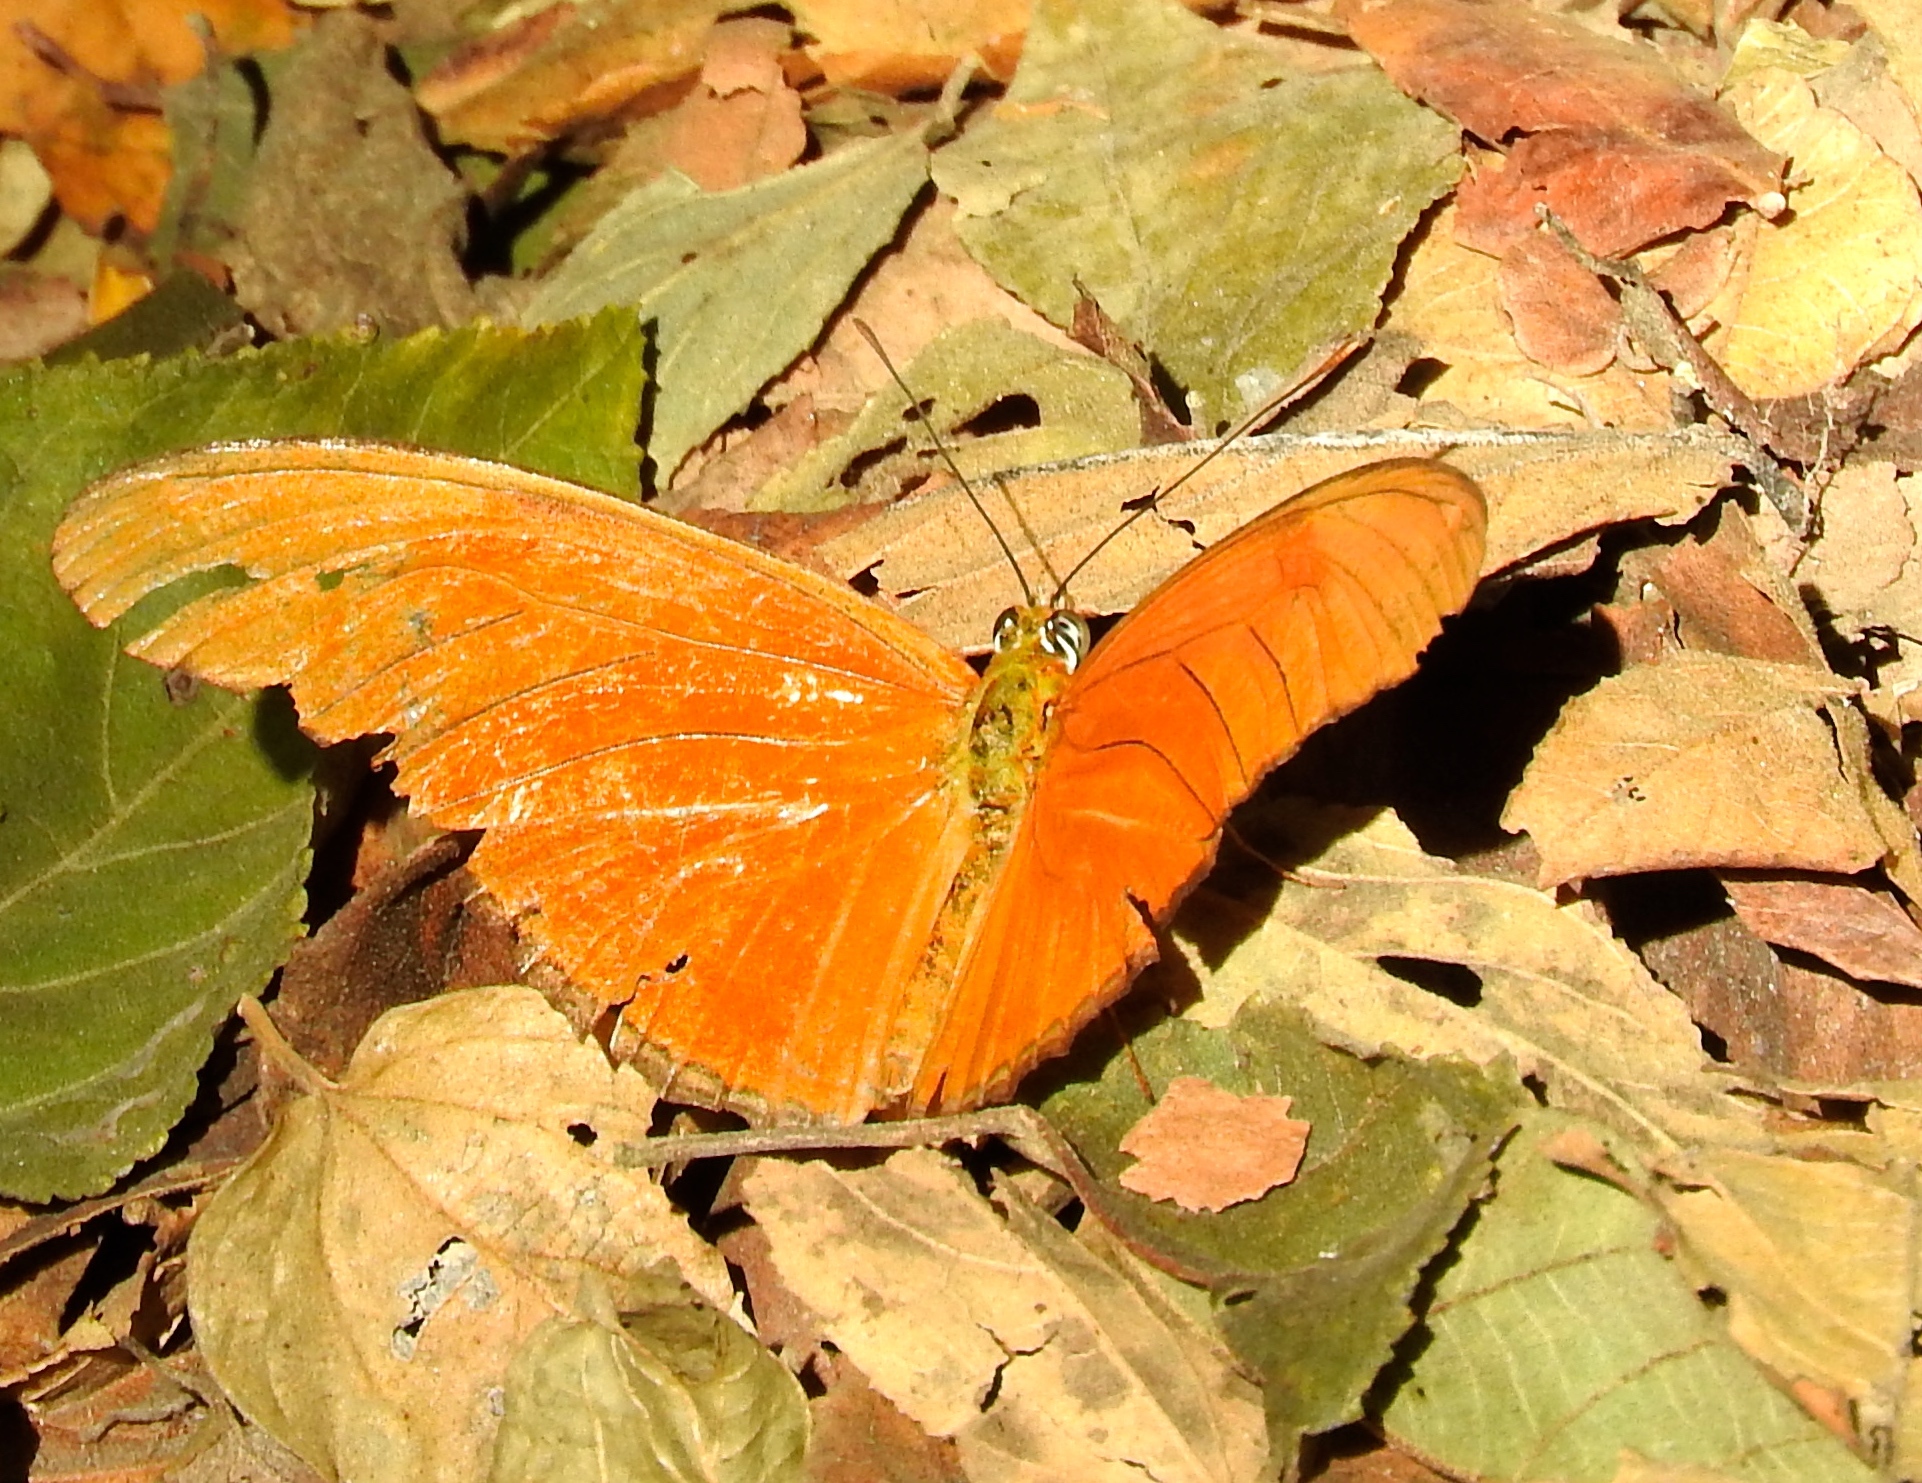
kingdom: Animalia
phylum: Arthropoda
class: Insecta
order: Lepidoptera
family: Nymphalidae
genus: Dryas
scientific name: Dryas iulia
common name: Flambeau
